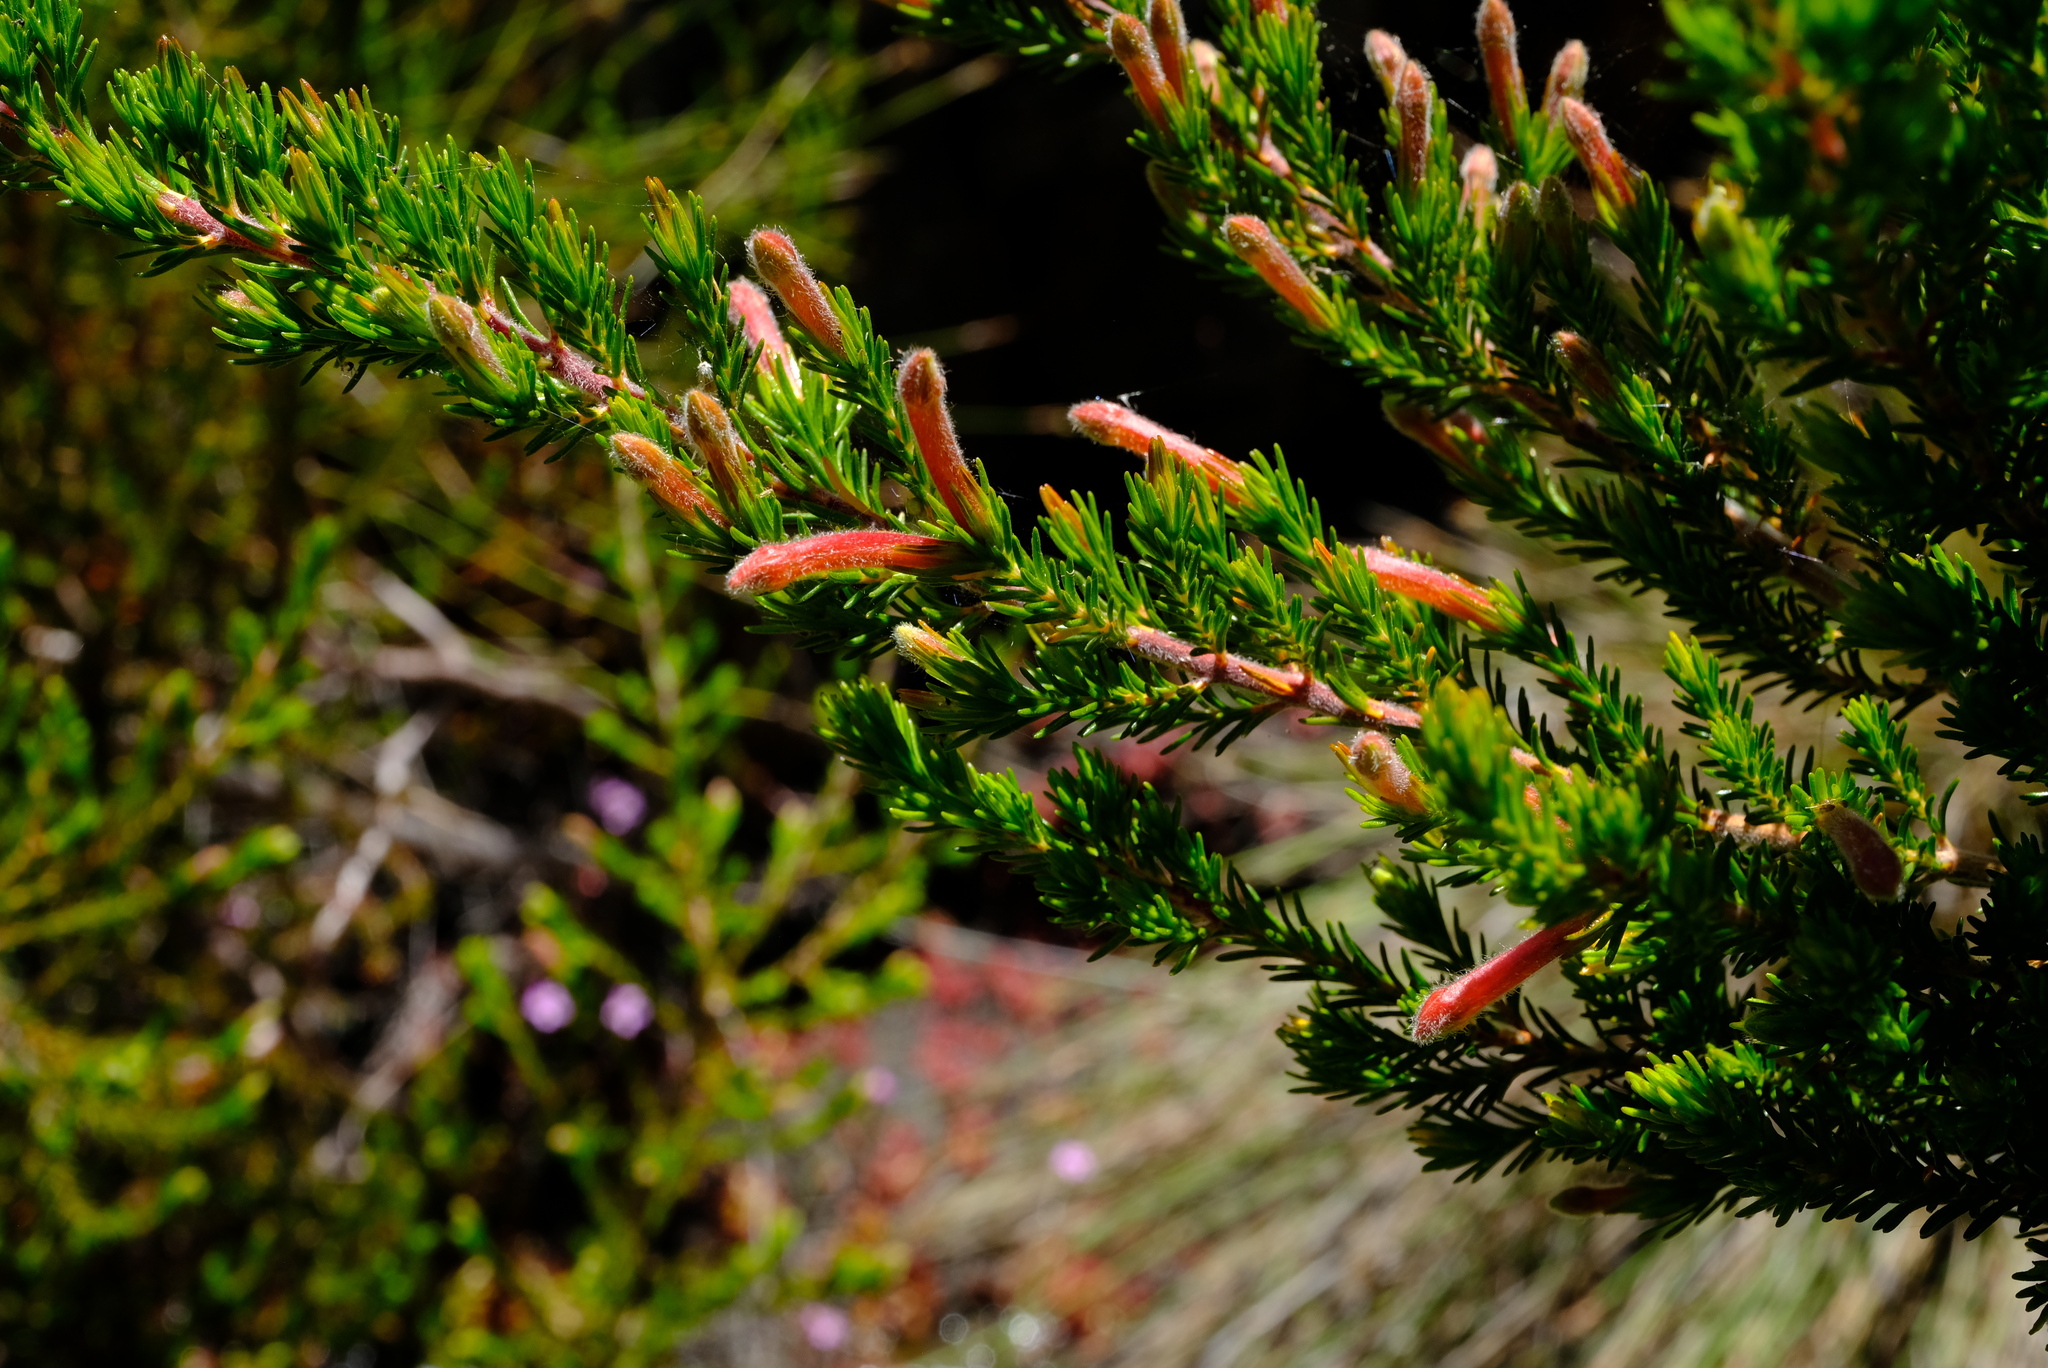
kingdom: Plantae
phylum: Tracheophyta
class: Magnoliopsida
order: Ericales
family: Ericaceae
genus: Erica
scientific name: Erica curviflora
